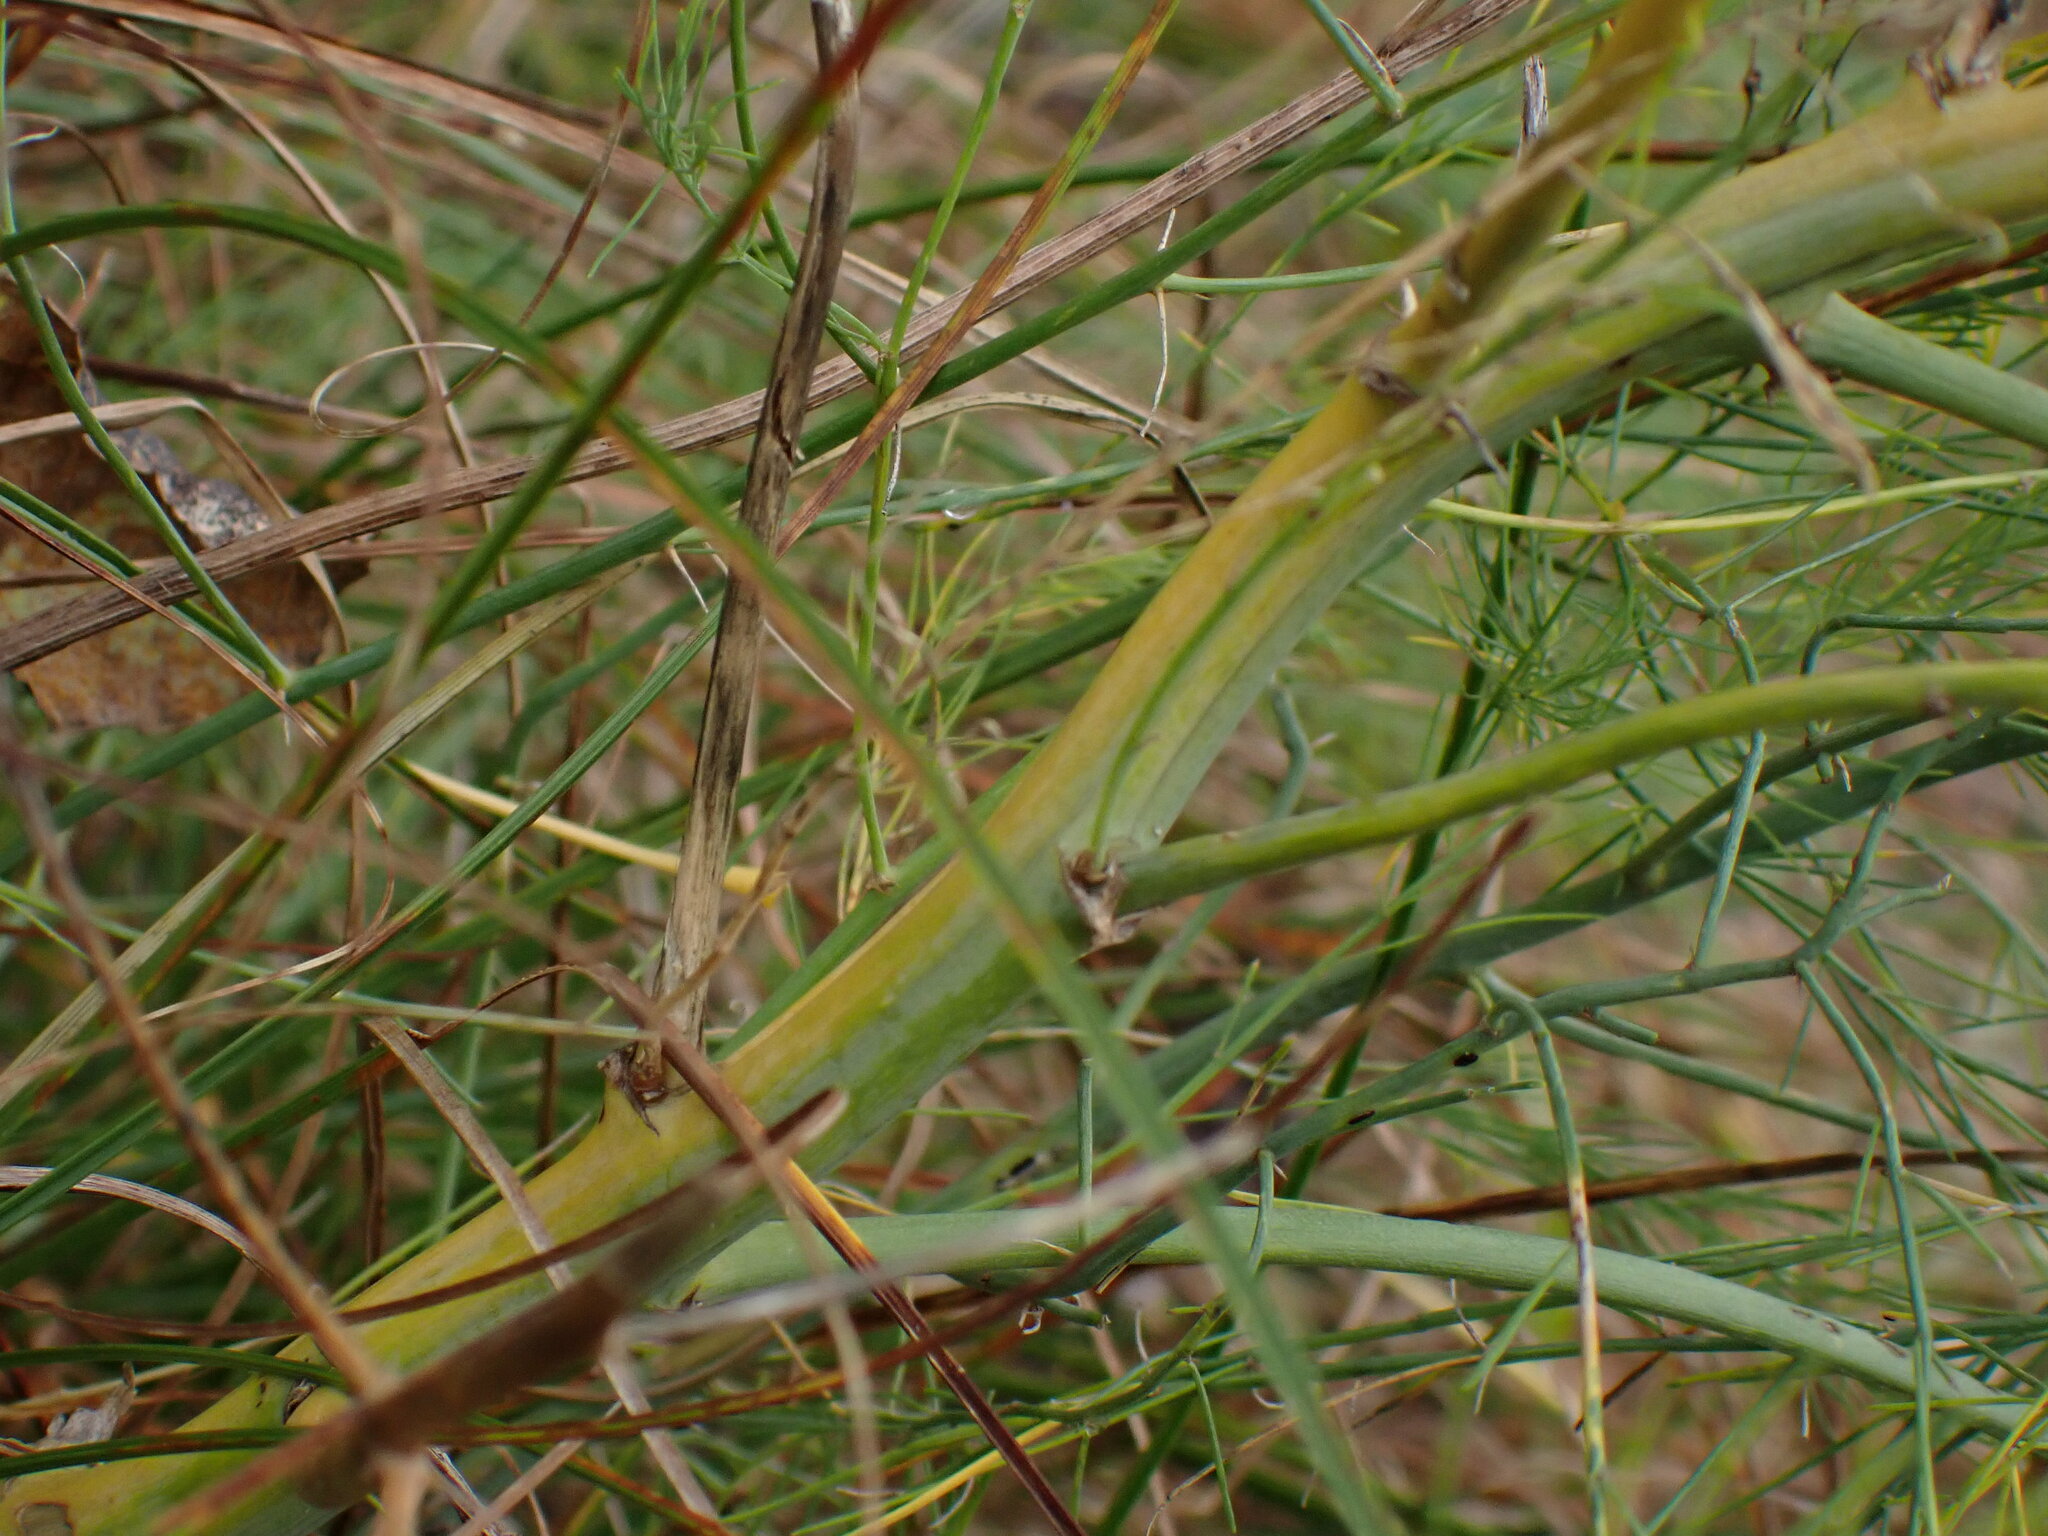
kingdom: Plantae
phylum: Tracheophyta
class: Liliopsida
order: Asparagales
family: Asparagaceae
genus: Asparagus
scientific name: Asparagus officinalis
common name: Garden asparagus
